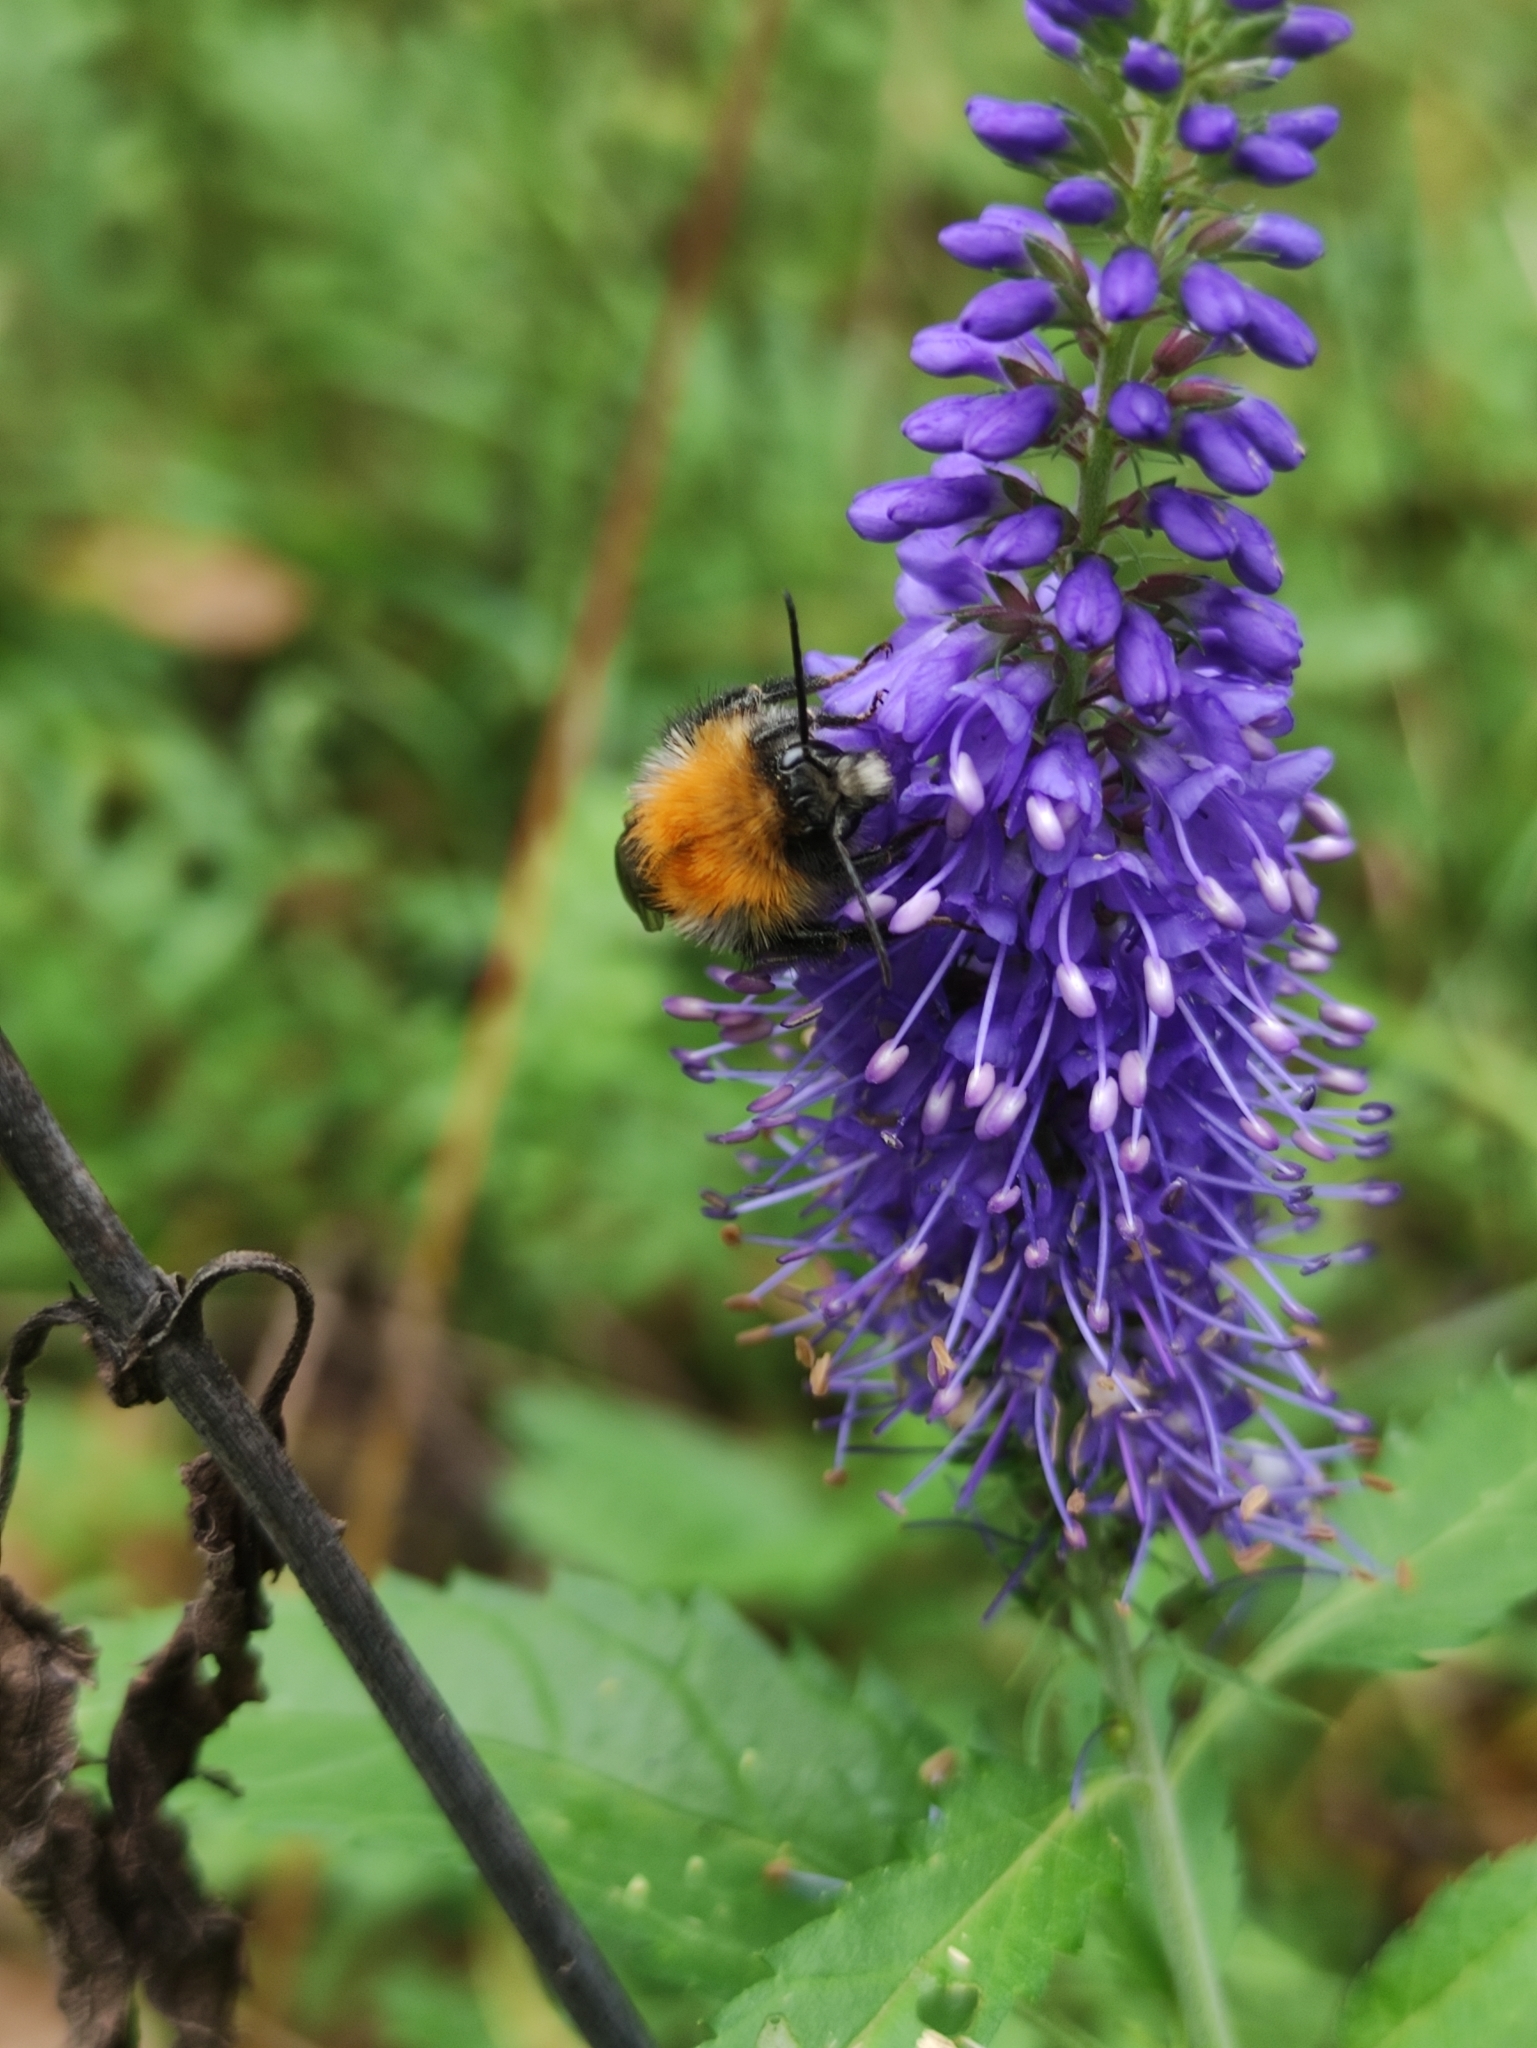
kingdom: Animalia
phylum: Arthropoda
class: Insecta
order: Hymenoptera
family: Apidae
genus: Bombus
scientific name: Bombus pascuorum
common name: Common carder bee
